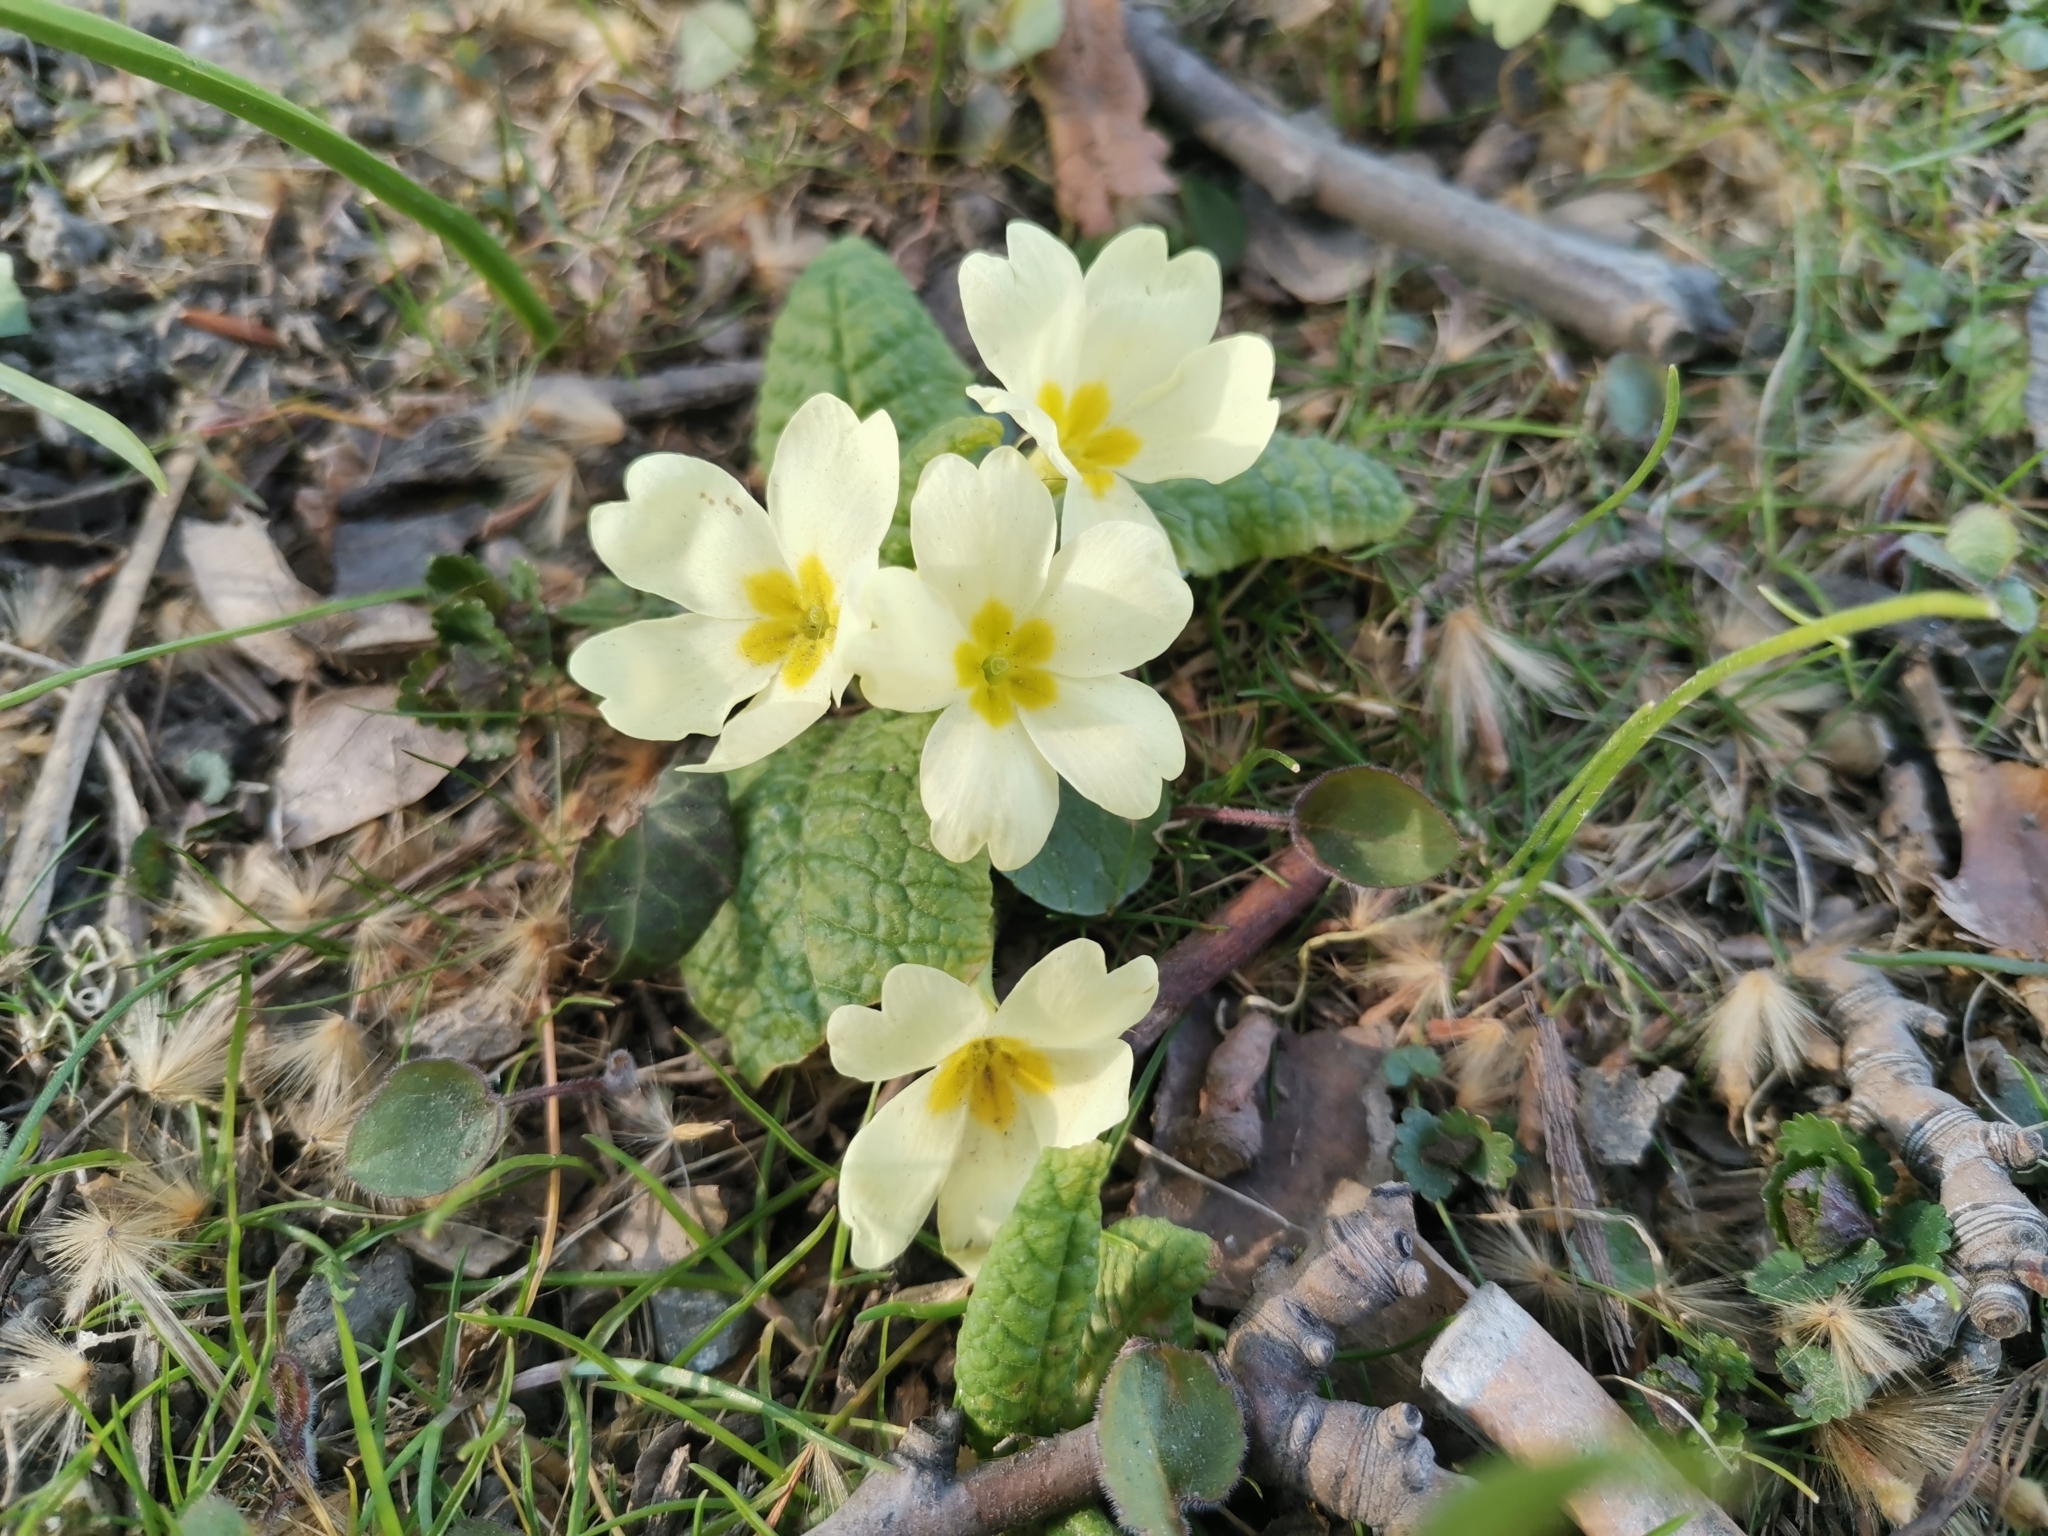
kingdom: Plantae
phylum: Tracheophyta
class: Magnoliopsida
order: Ericales
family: Primulaceae
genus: Primula
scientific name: Primula vulgaris
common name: Primrose
